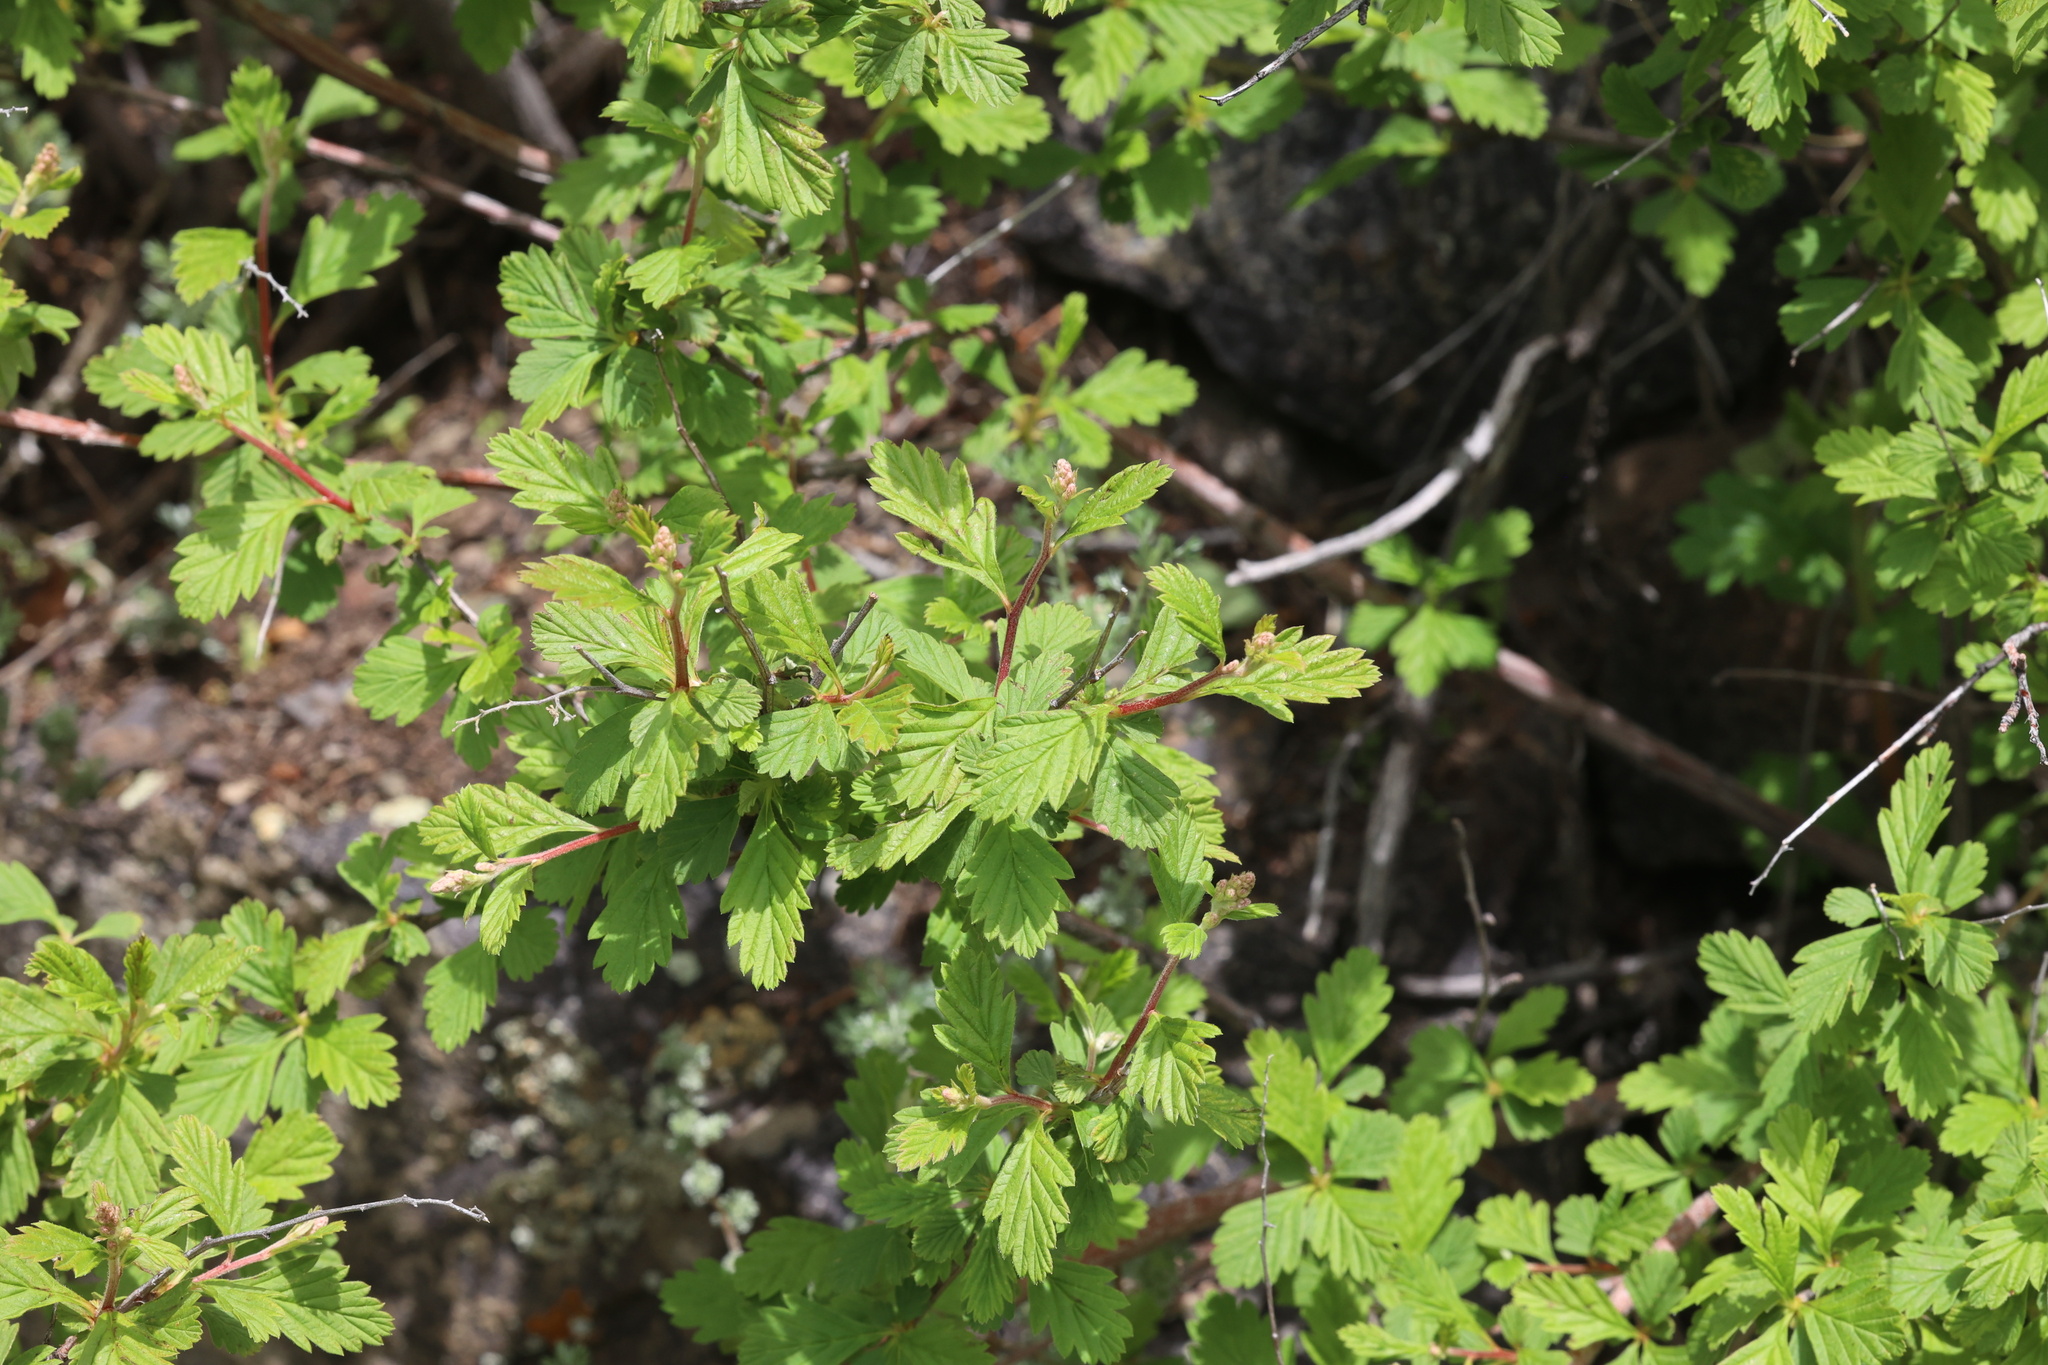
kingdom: Plantae
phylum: Tracheophyta
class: Magnoliopsida
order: Rosales
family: Rosaceae
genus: Holodiscus
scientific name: Holodiscus discolor
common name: Oceanspray
